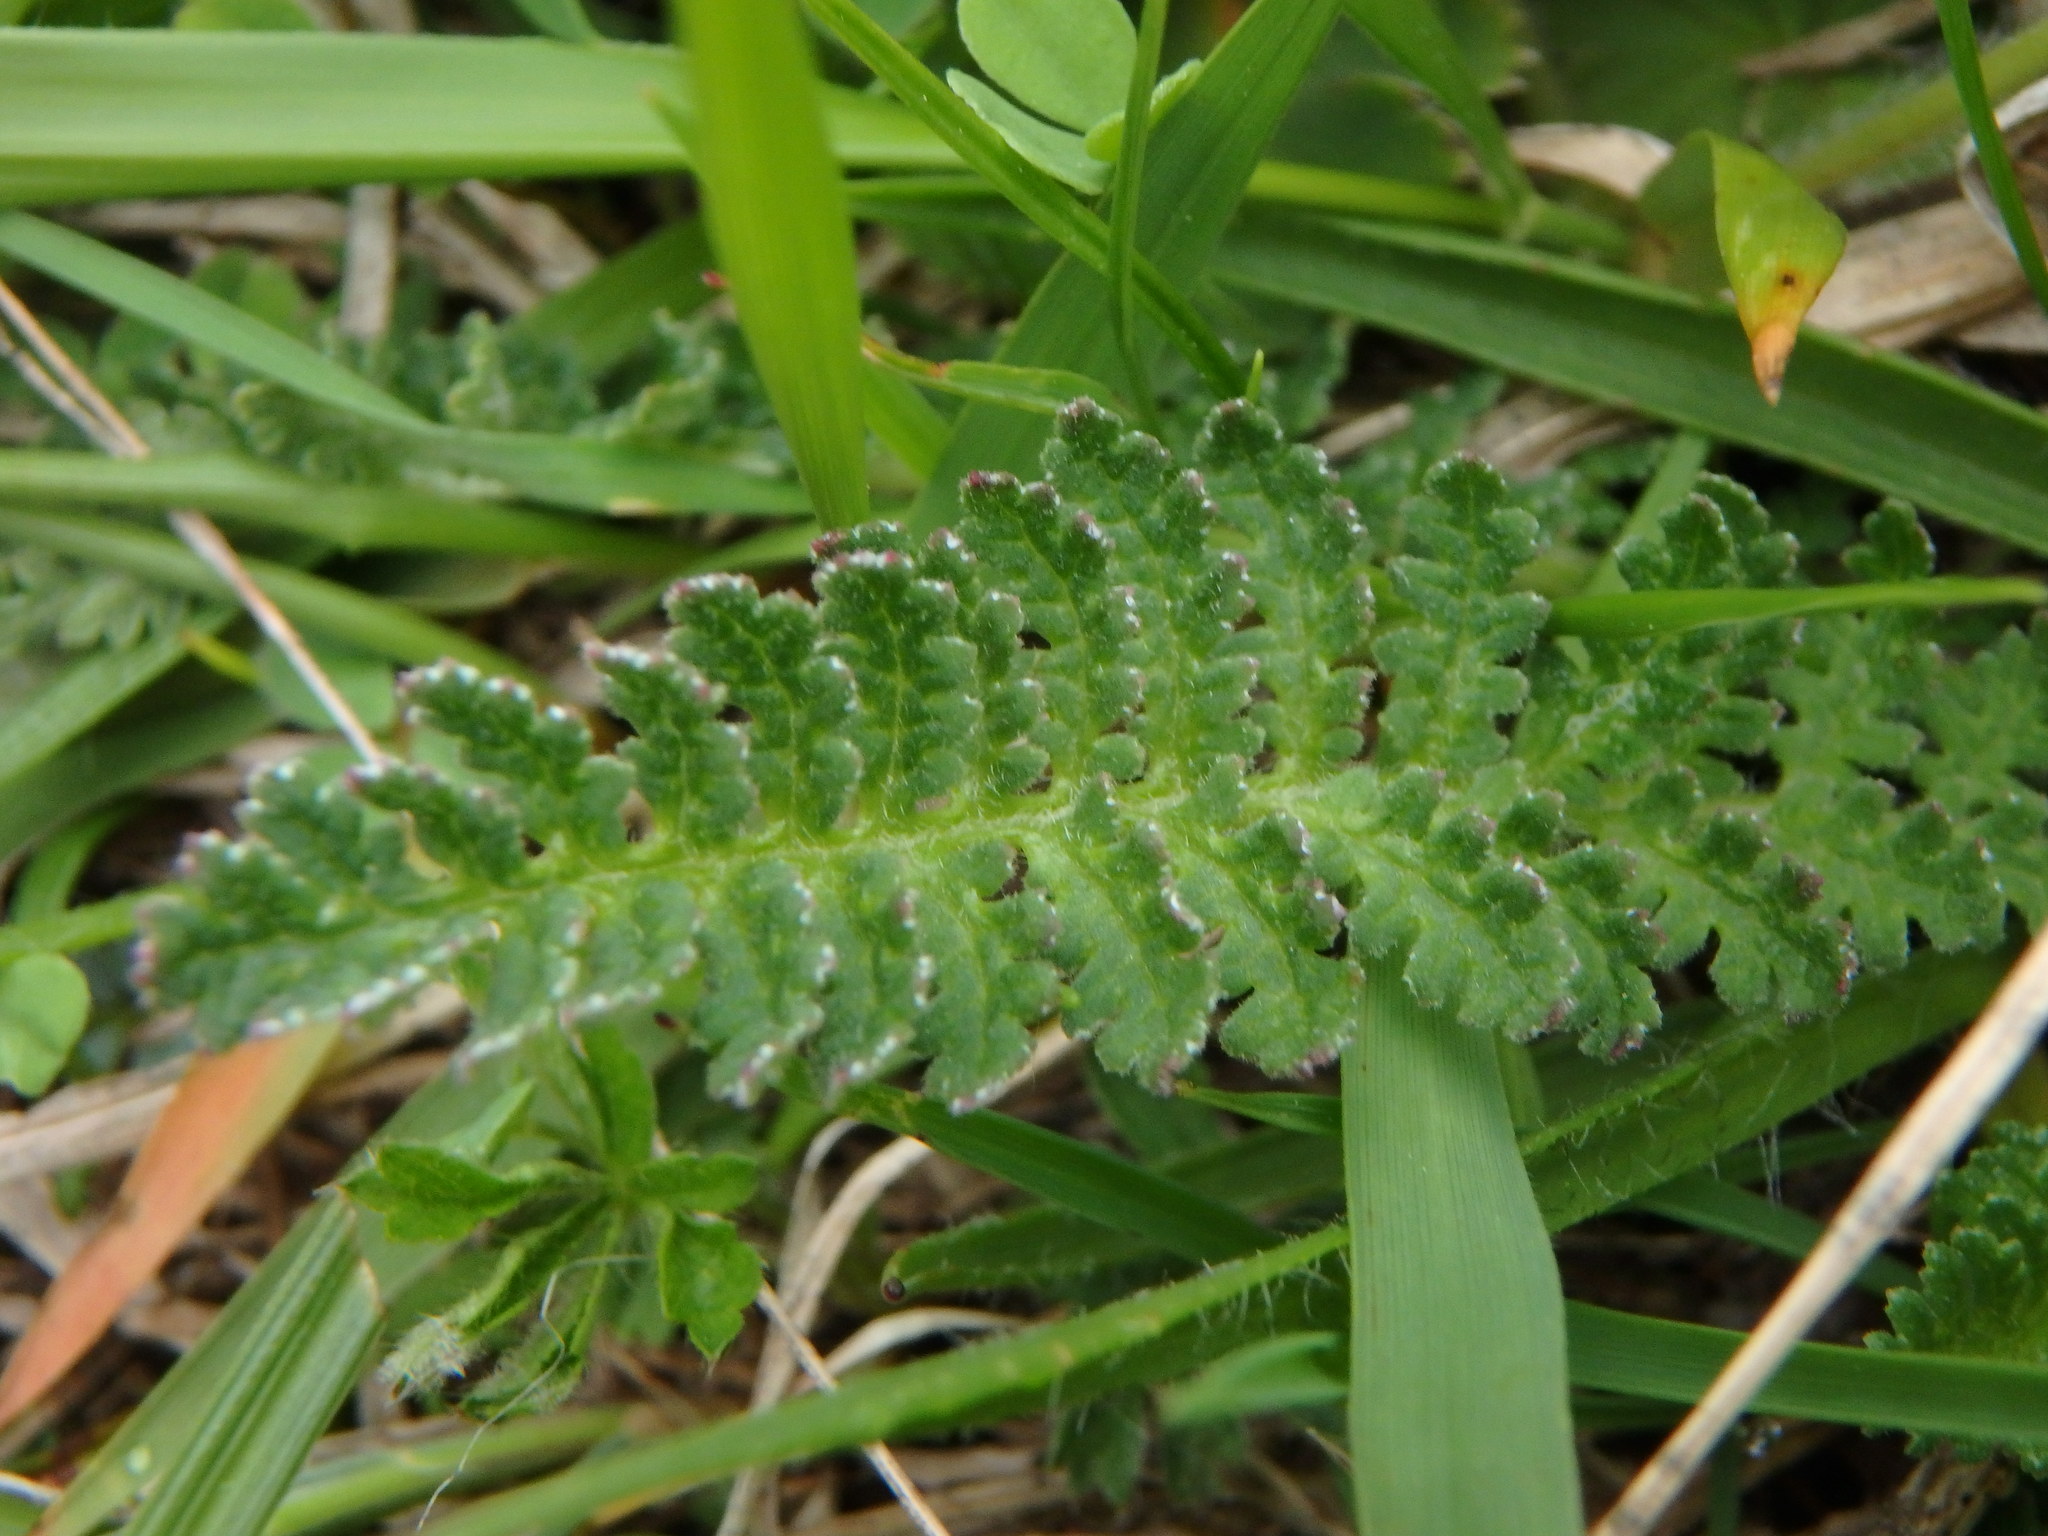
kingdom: Plantae
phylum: Tracheophyta
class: Magnoliopsida
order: Lamiales
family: Orobanchaceae
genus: Pedicularis
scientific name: Pedicularis gyroflexa
